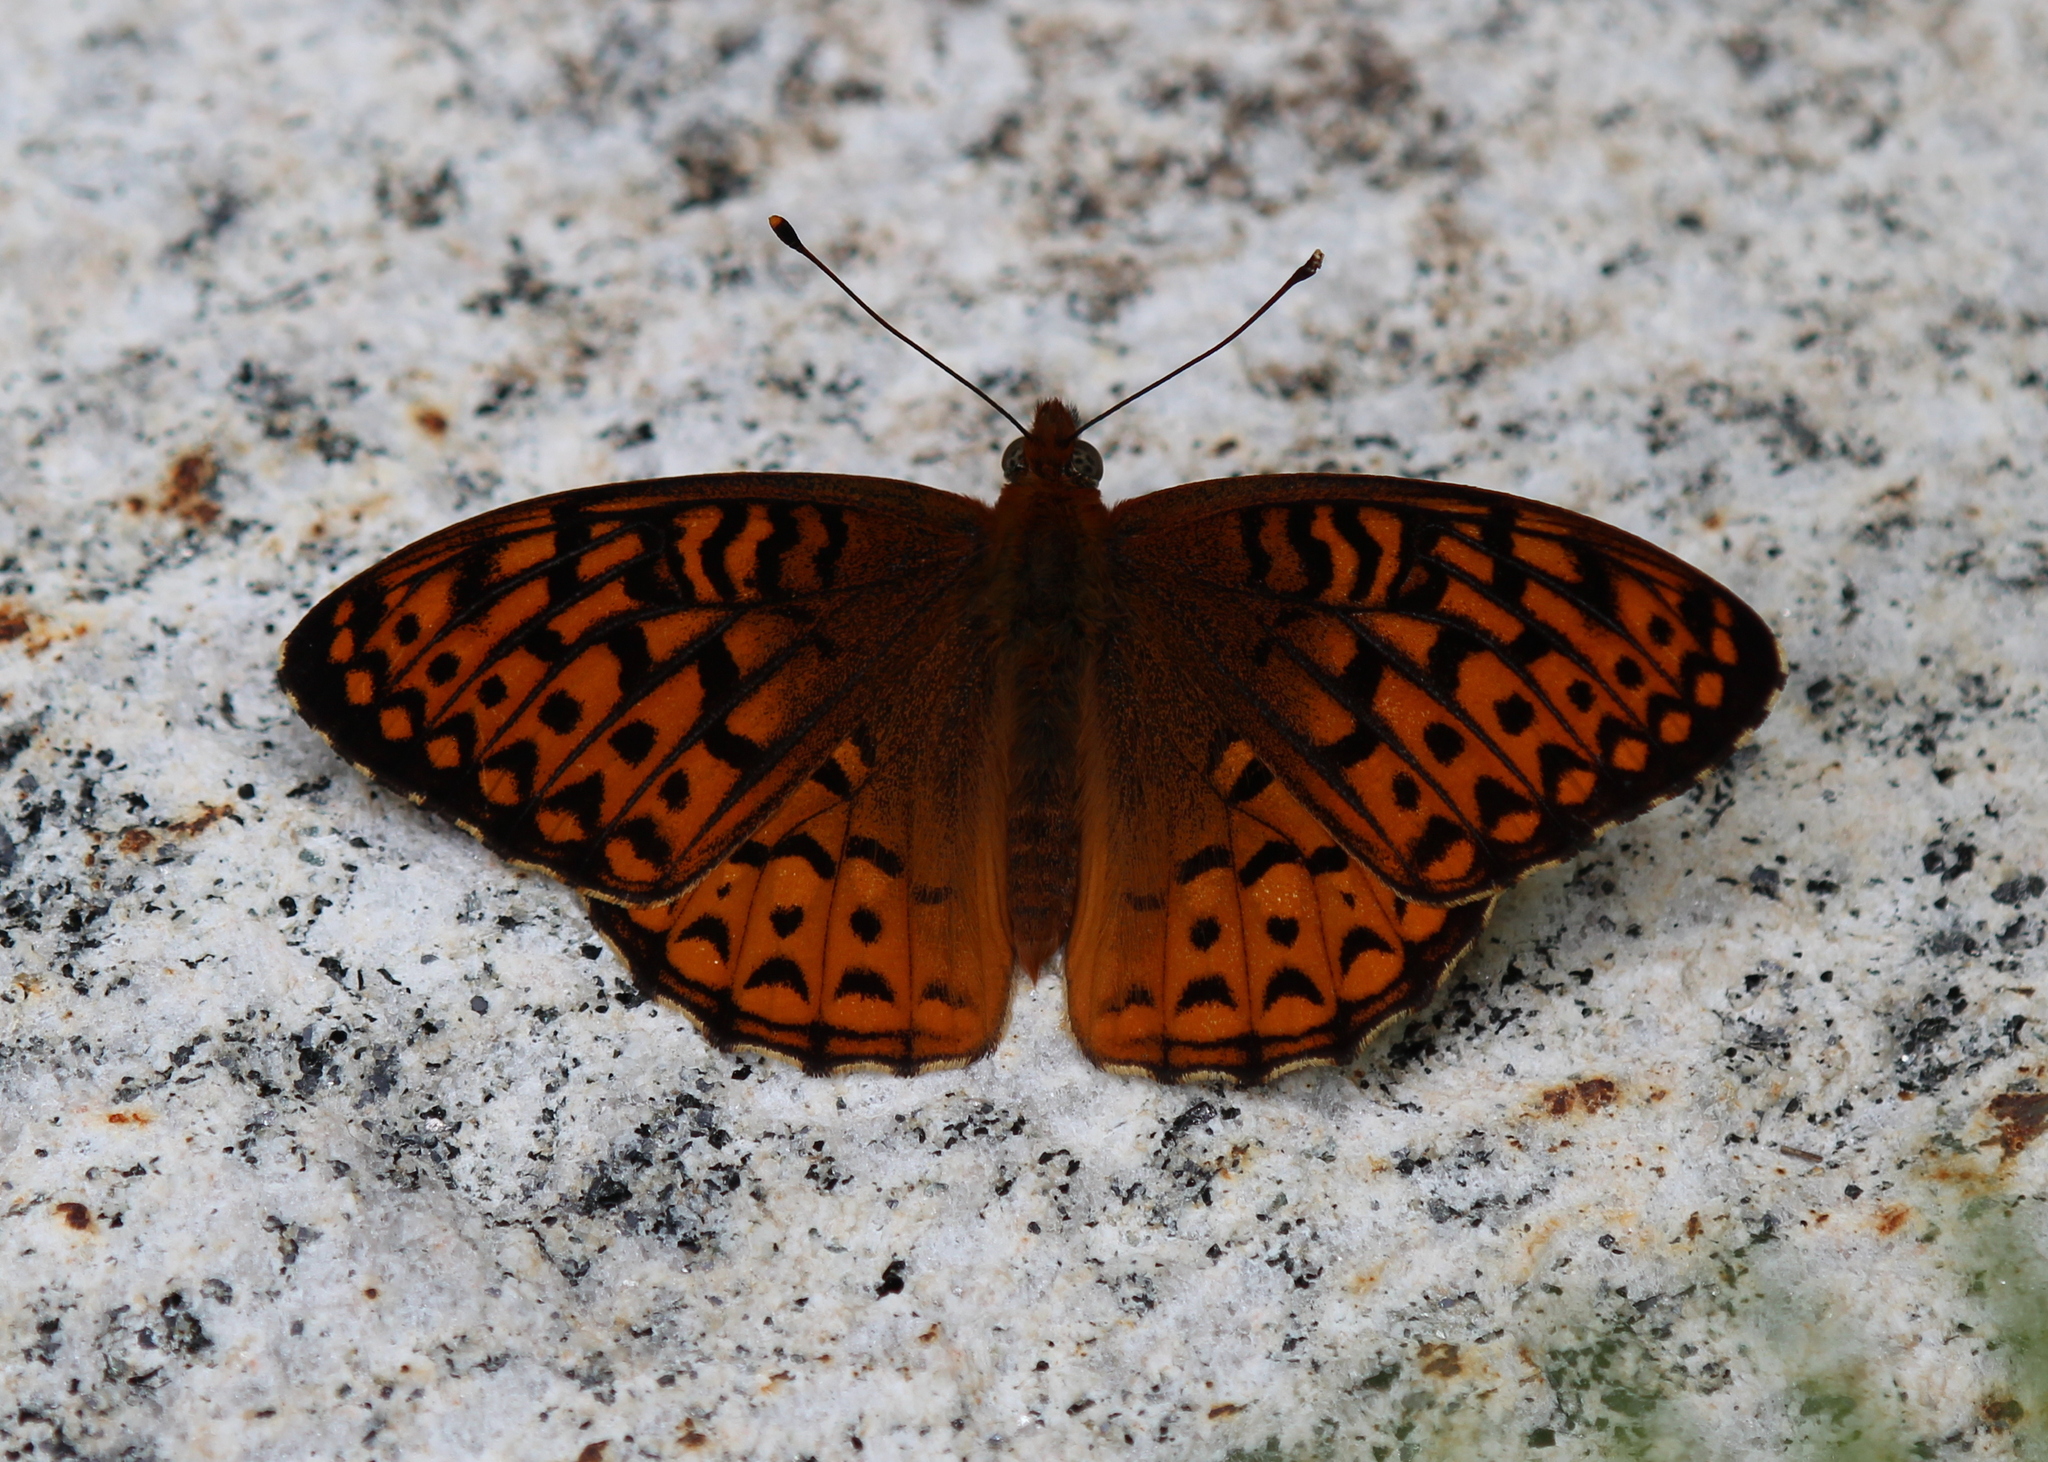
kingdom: Animalia
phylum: Arthropoda
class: Insecta
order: Lepidoptera
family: Nymphalidae
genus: Speyeria
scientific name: Speyeria atlantis
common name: Atlantis fritillary
